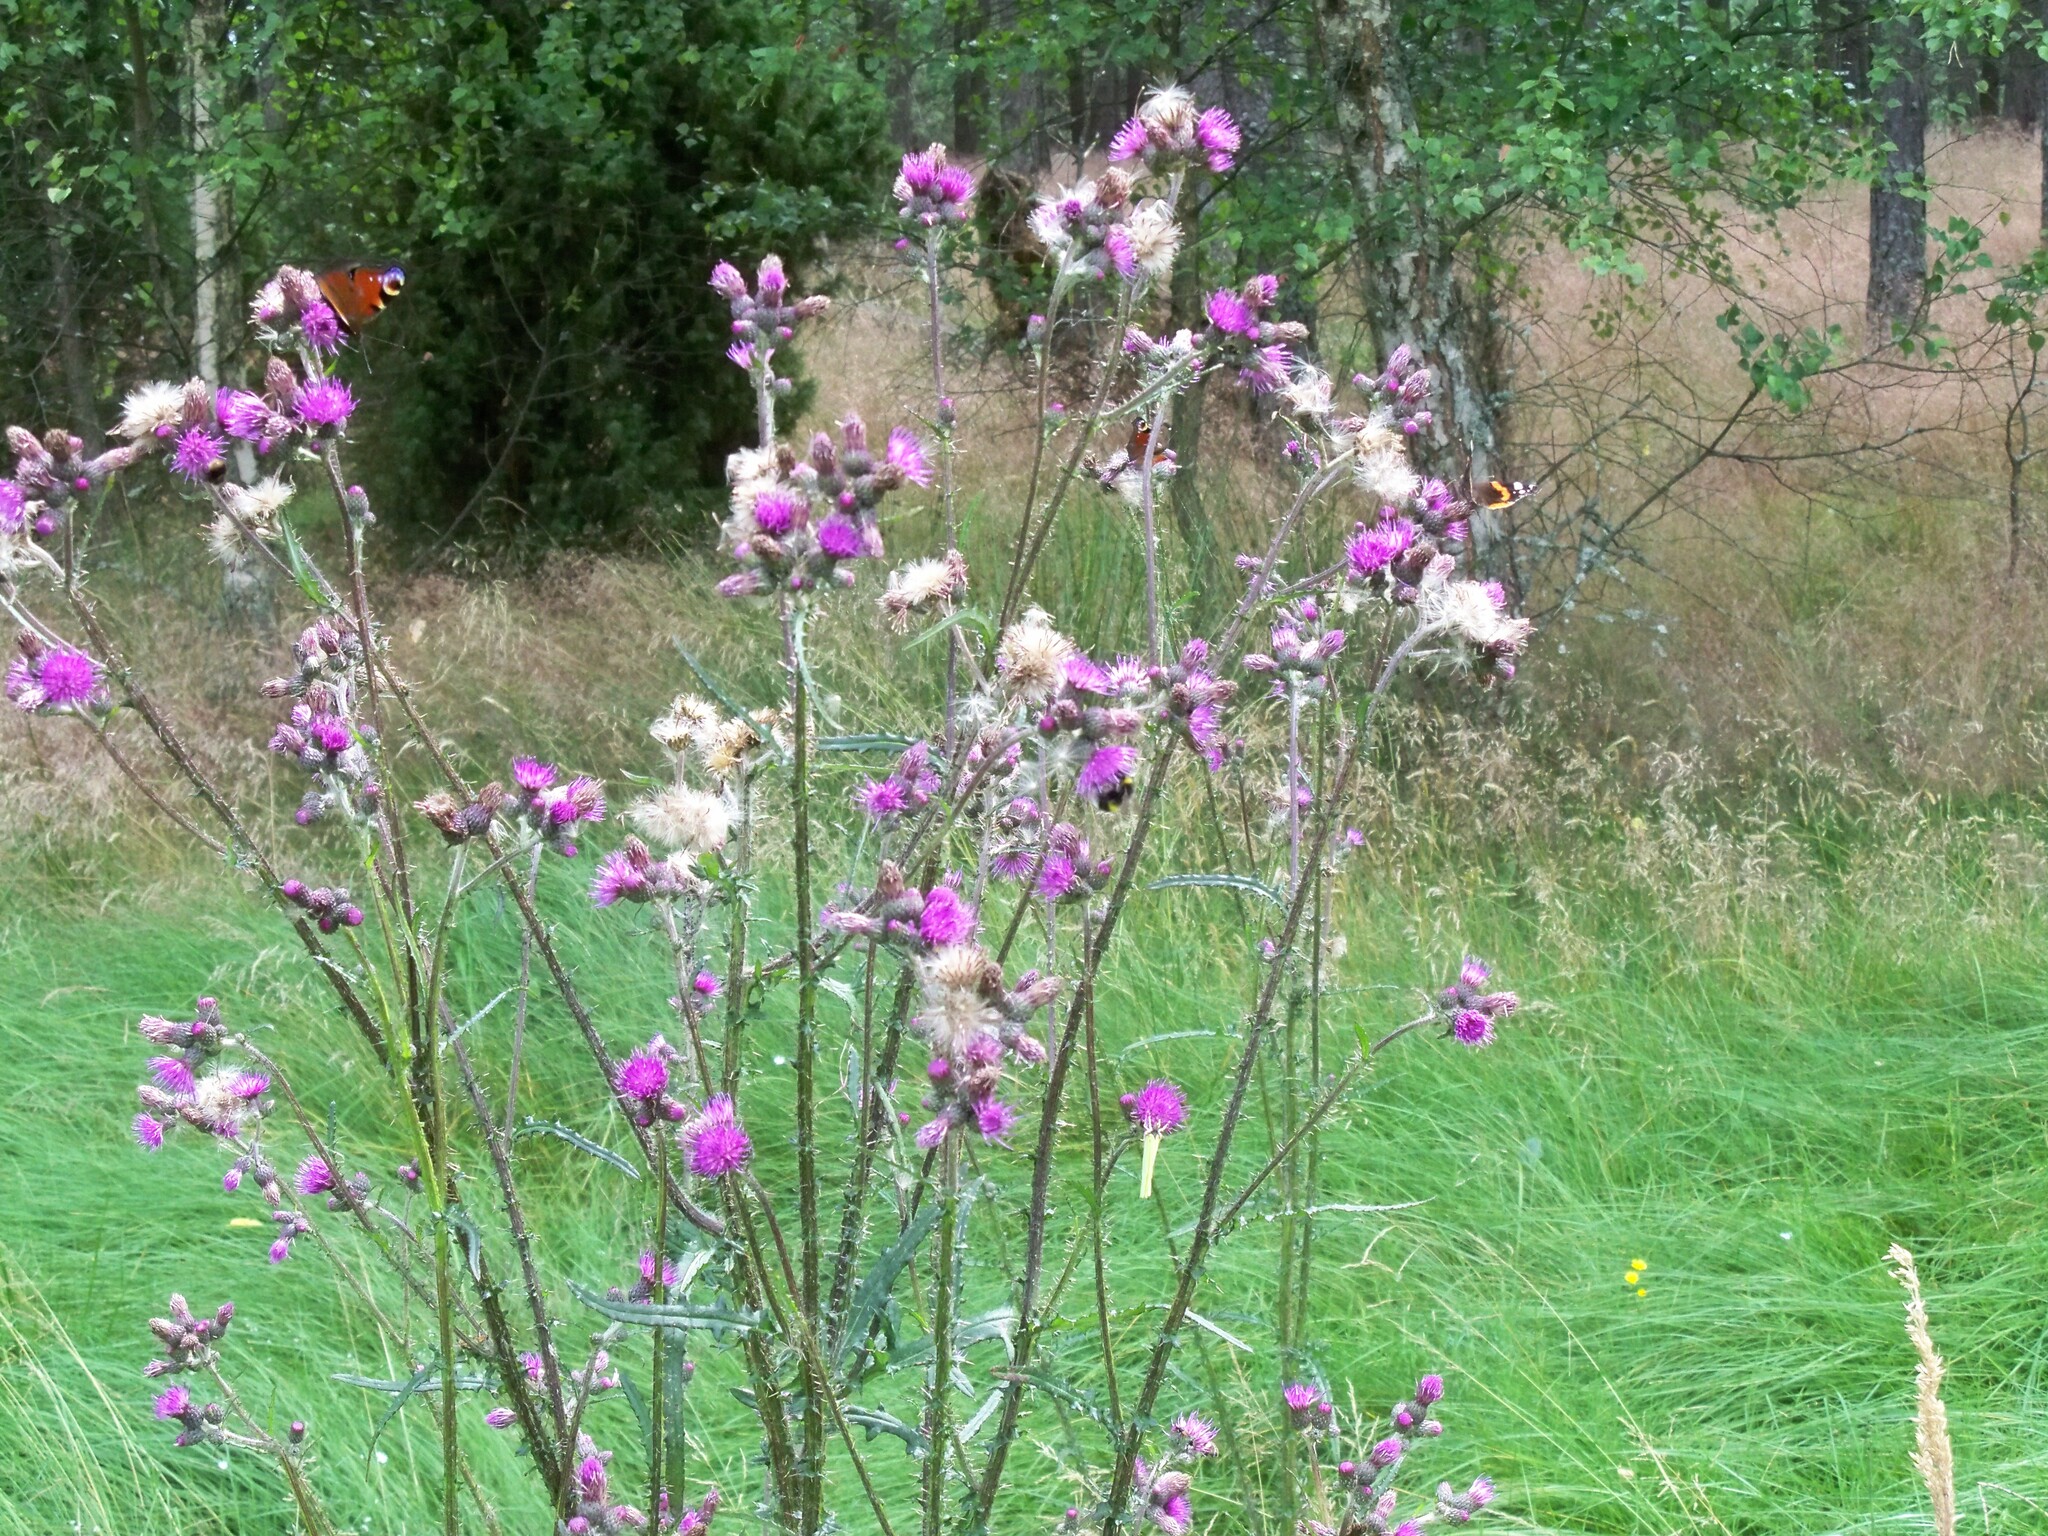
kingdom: Plantae
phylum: Tracheophyta
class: Magnoliopsida
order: Asterales
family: Asteraceae
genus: Cirsium
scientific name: Cirsium palustre
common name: Marsh thistle
